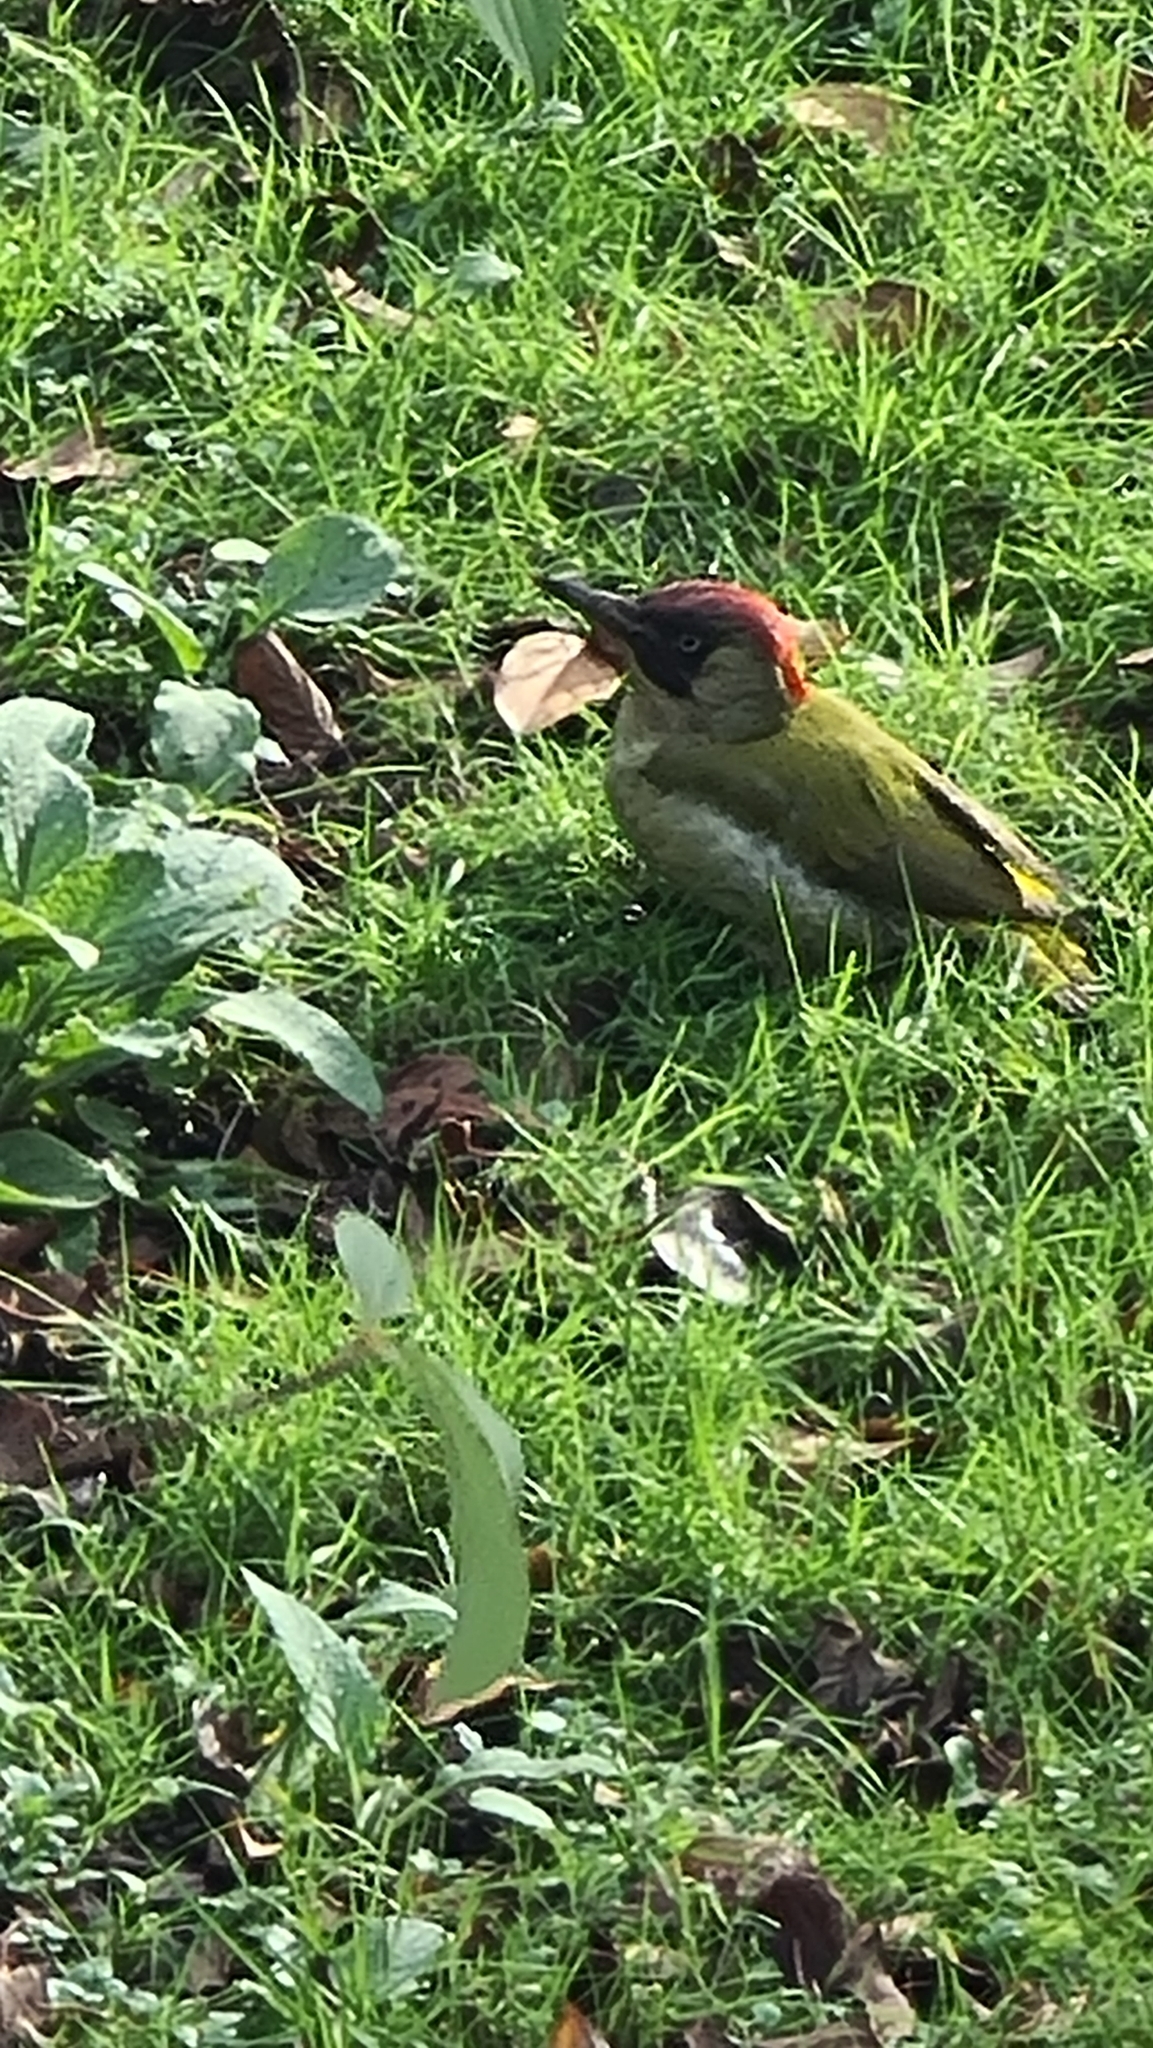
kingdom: Animalia
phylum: Chordata
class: Aves
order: Piciformes
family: Picidae
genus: Picus
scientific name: Picus viridis
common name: European green woodpecker
